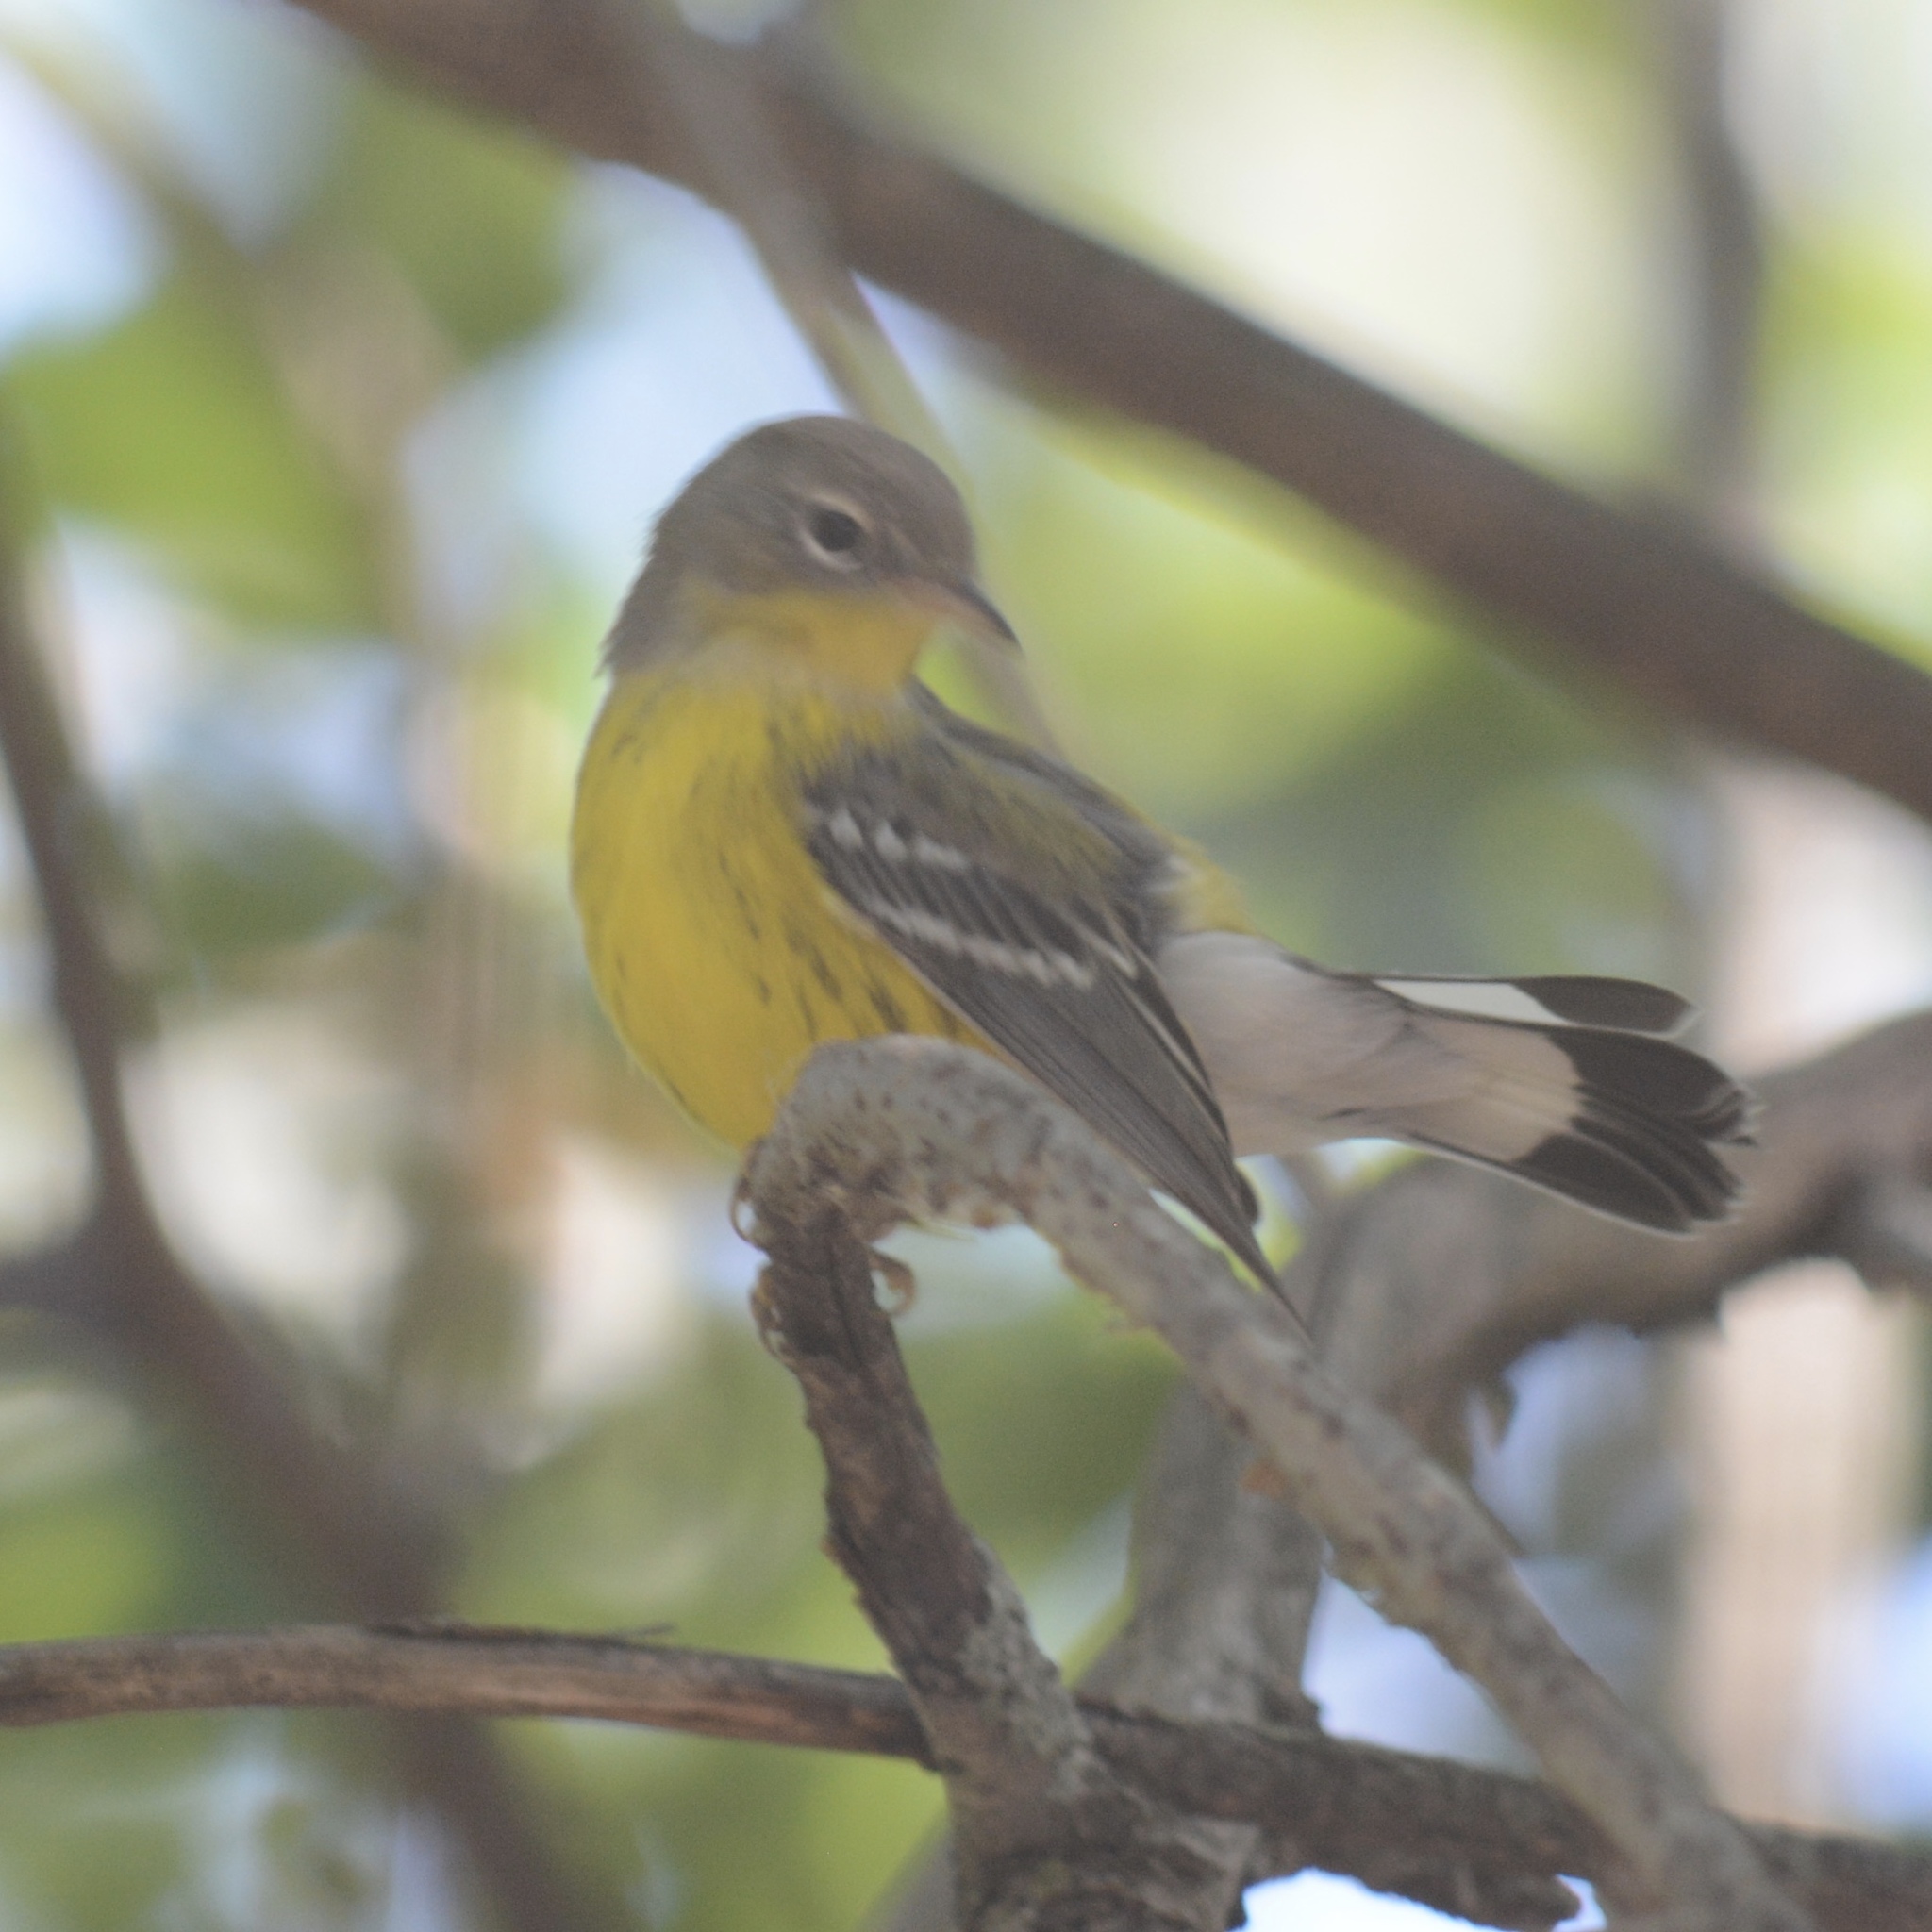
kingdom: Animalia
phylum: Chordata
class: Aves
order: Passeriformes
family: Parulidae
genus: Setophaga
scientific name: Setophaga magnolia
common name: Magnolia warbler
